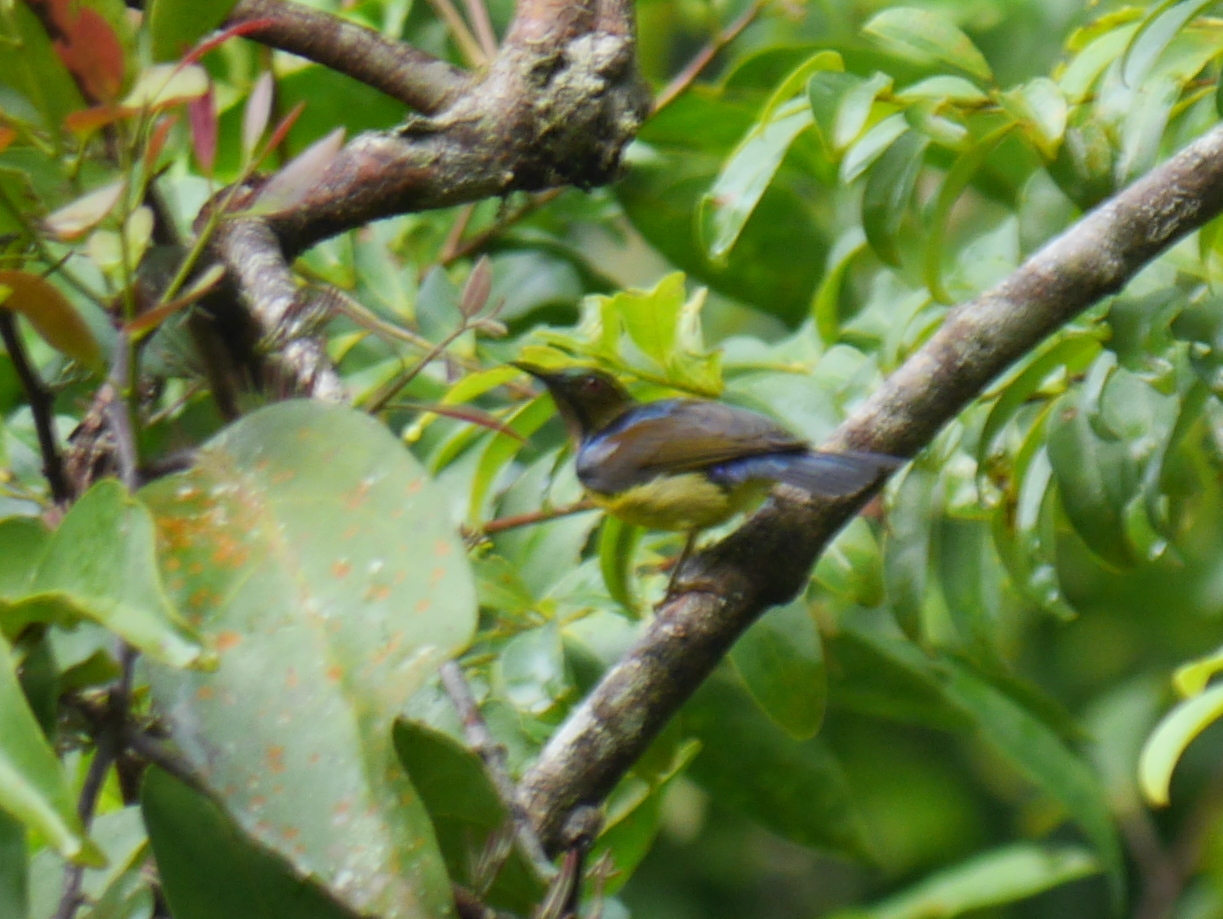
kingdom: Animalia
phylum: Chordata
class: Aves
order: Passeriformes
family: Nectariniidae
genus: Anthreptes
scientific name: Anthreptes malacensis
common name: Brown-throated sunbird
